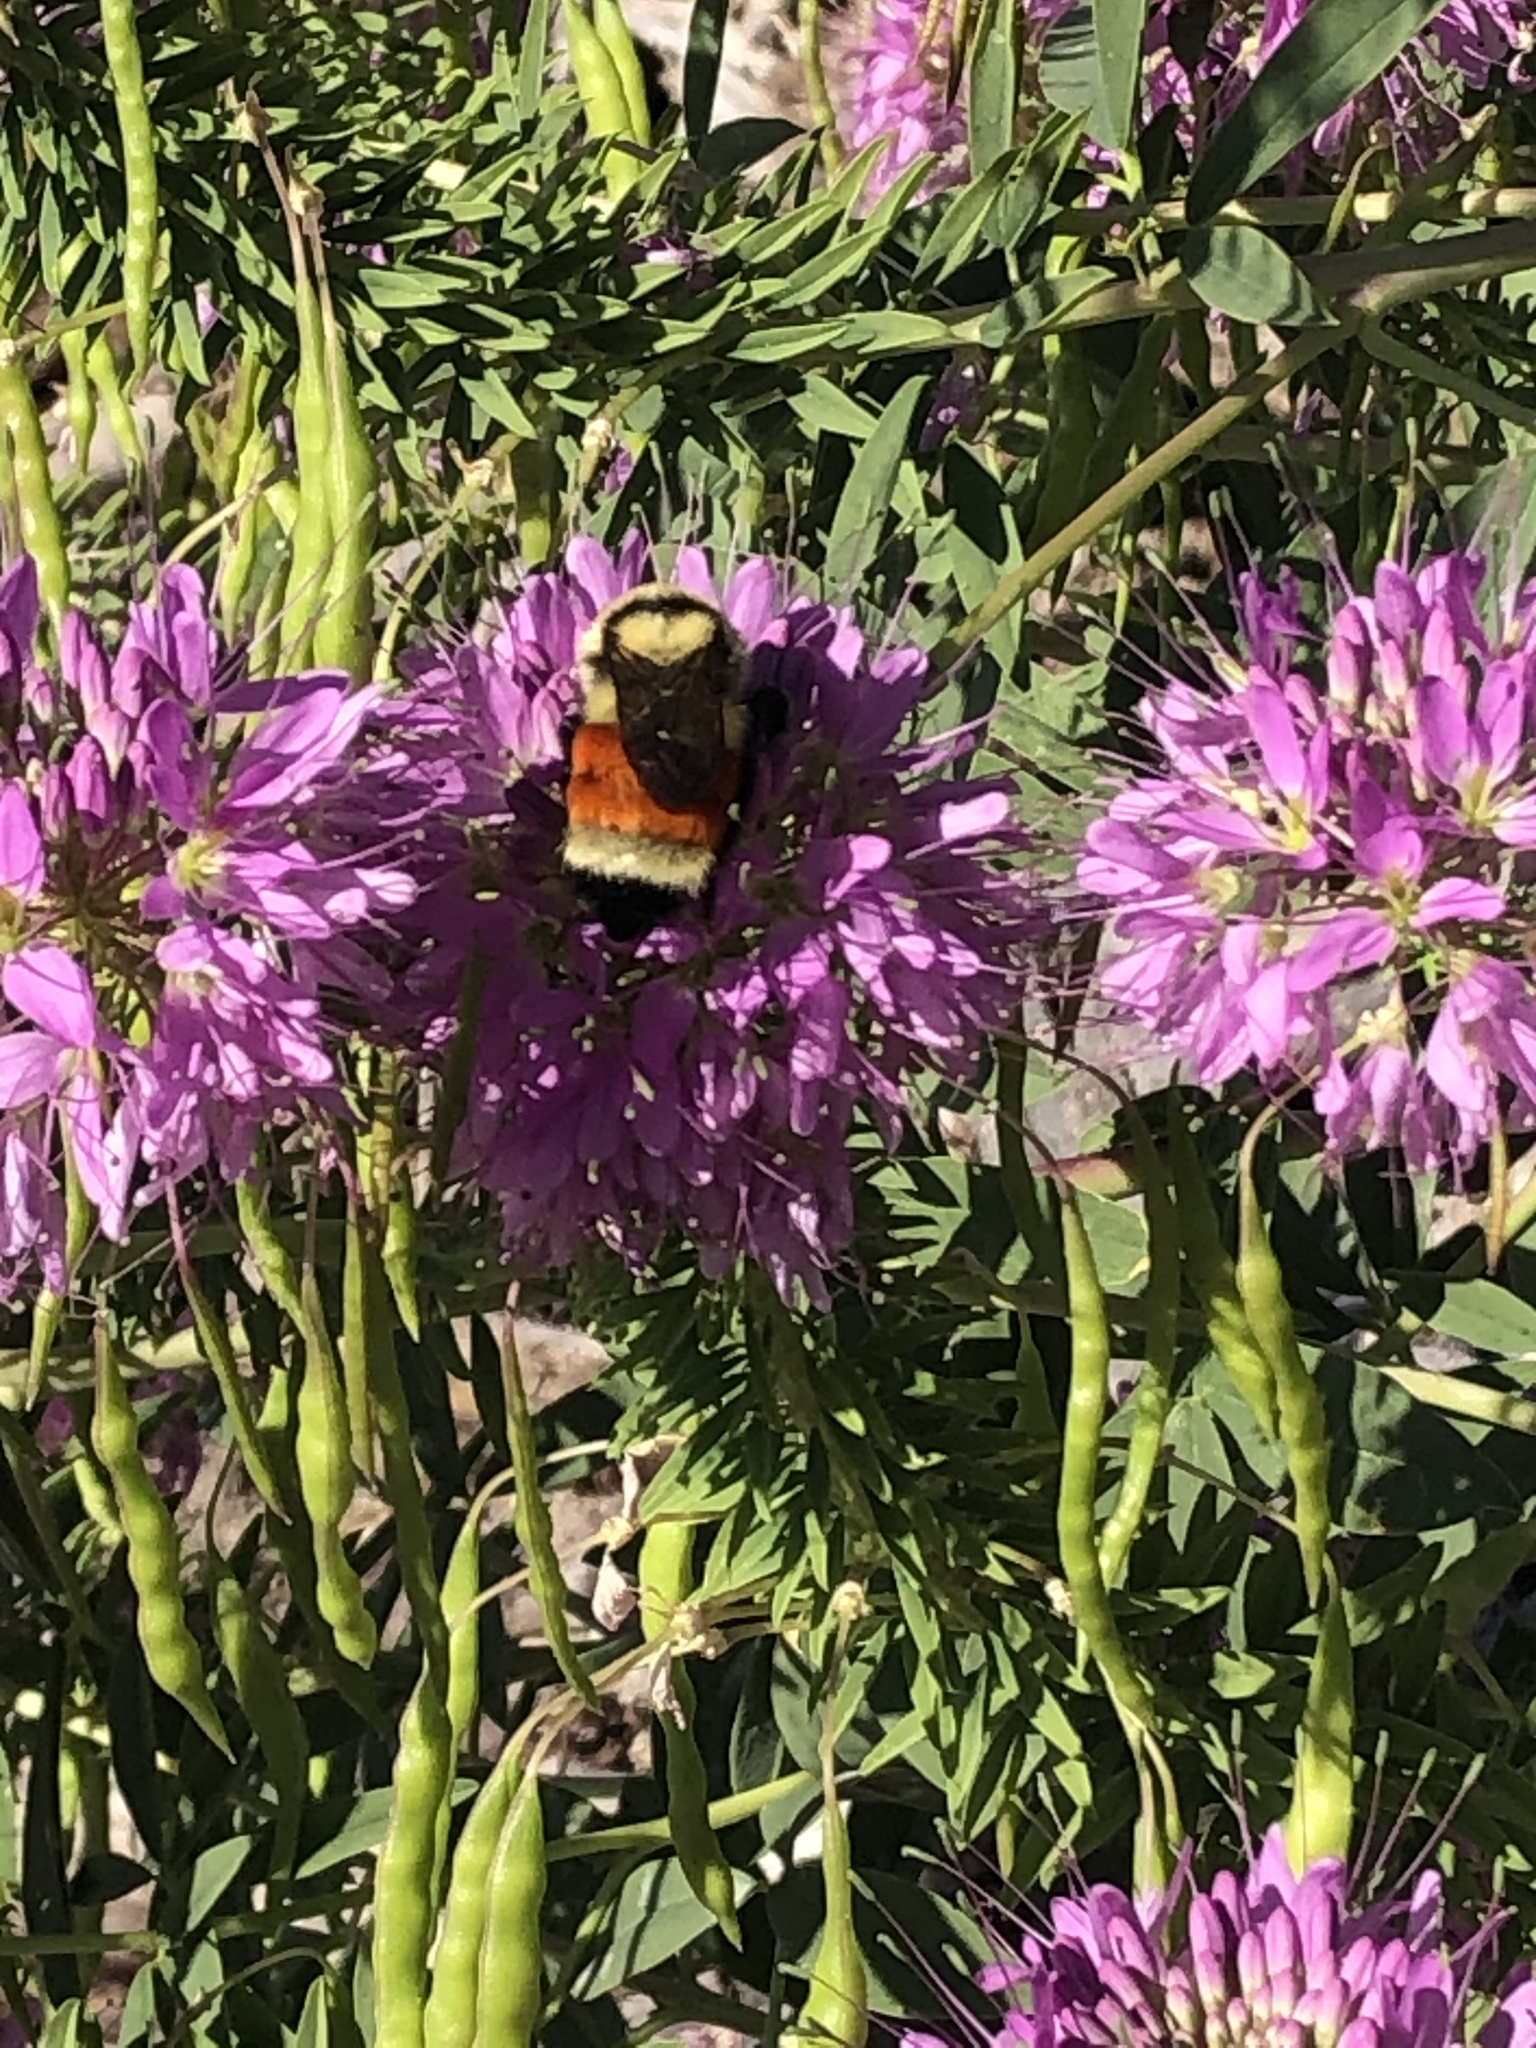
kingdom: Animalia
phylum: Arthropoda
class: Insecta
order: Hymenoptera
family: Apidae
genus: Bombus
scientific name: Bombus huntii
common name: Hunt bumble bee
